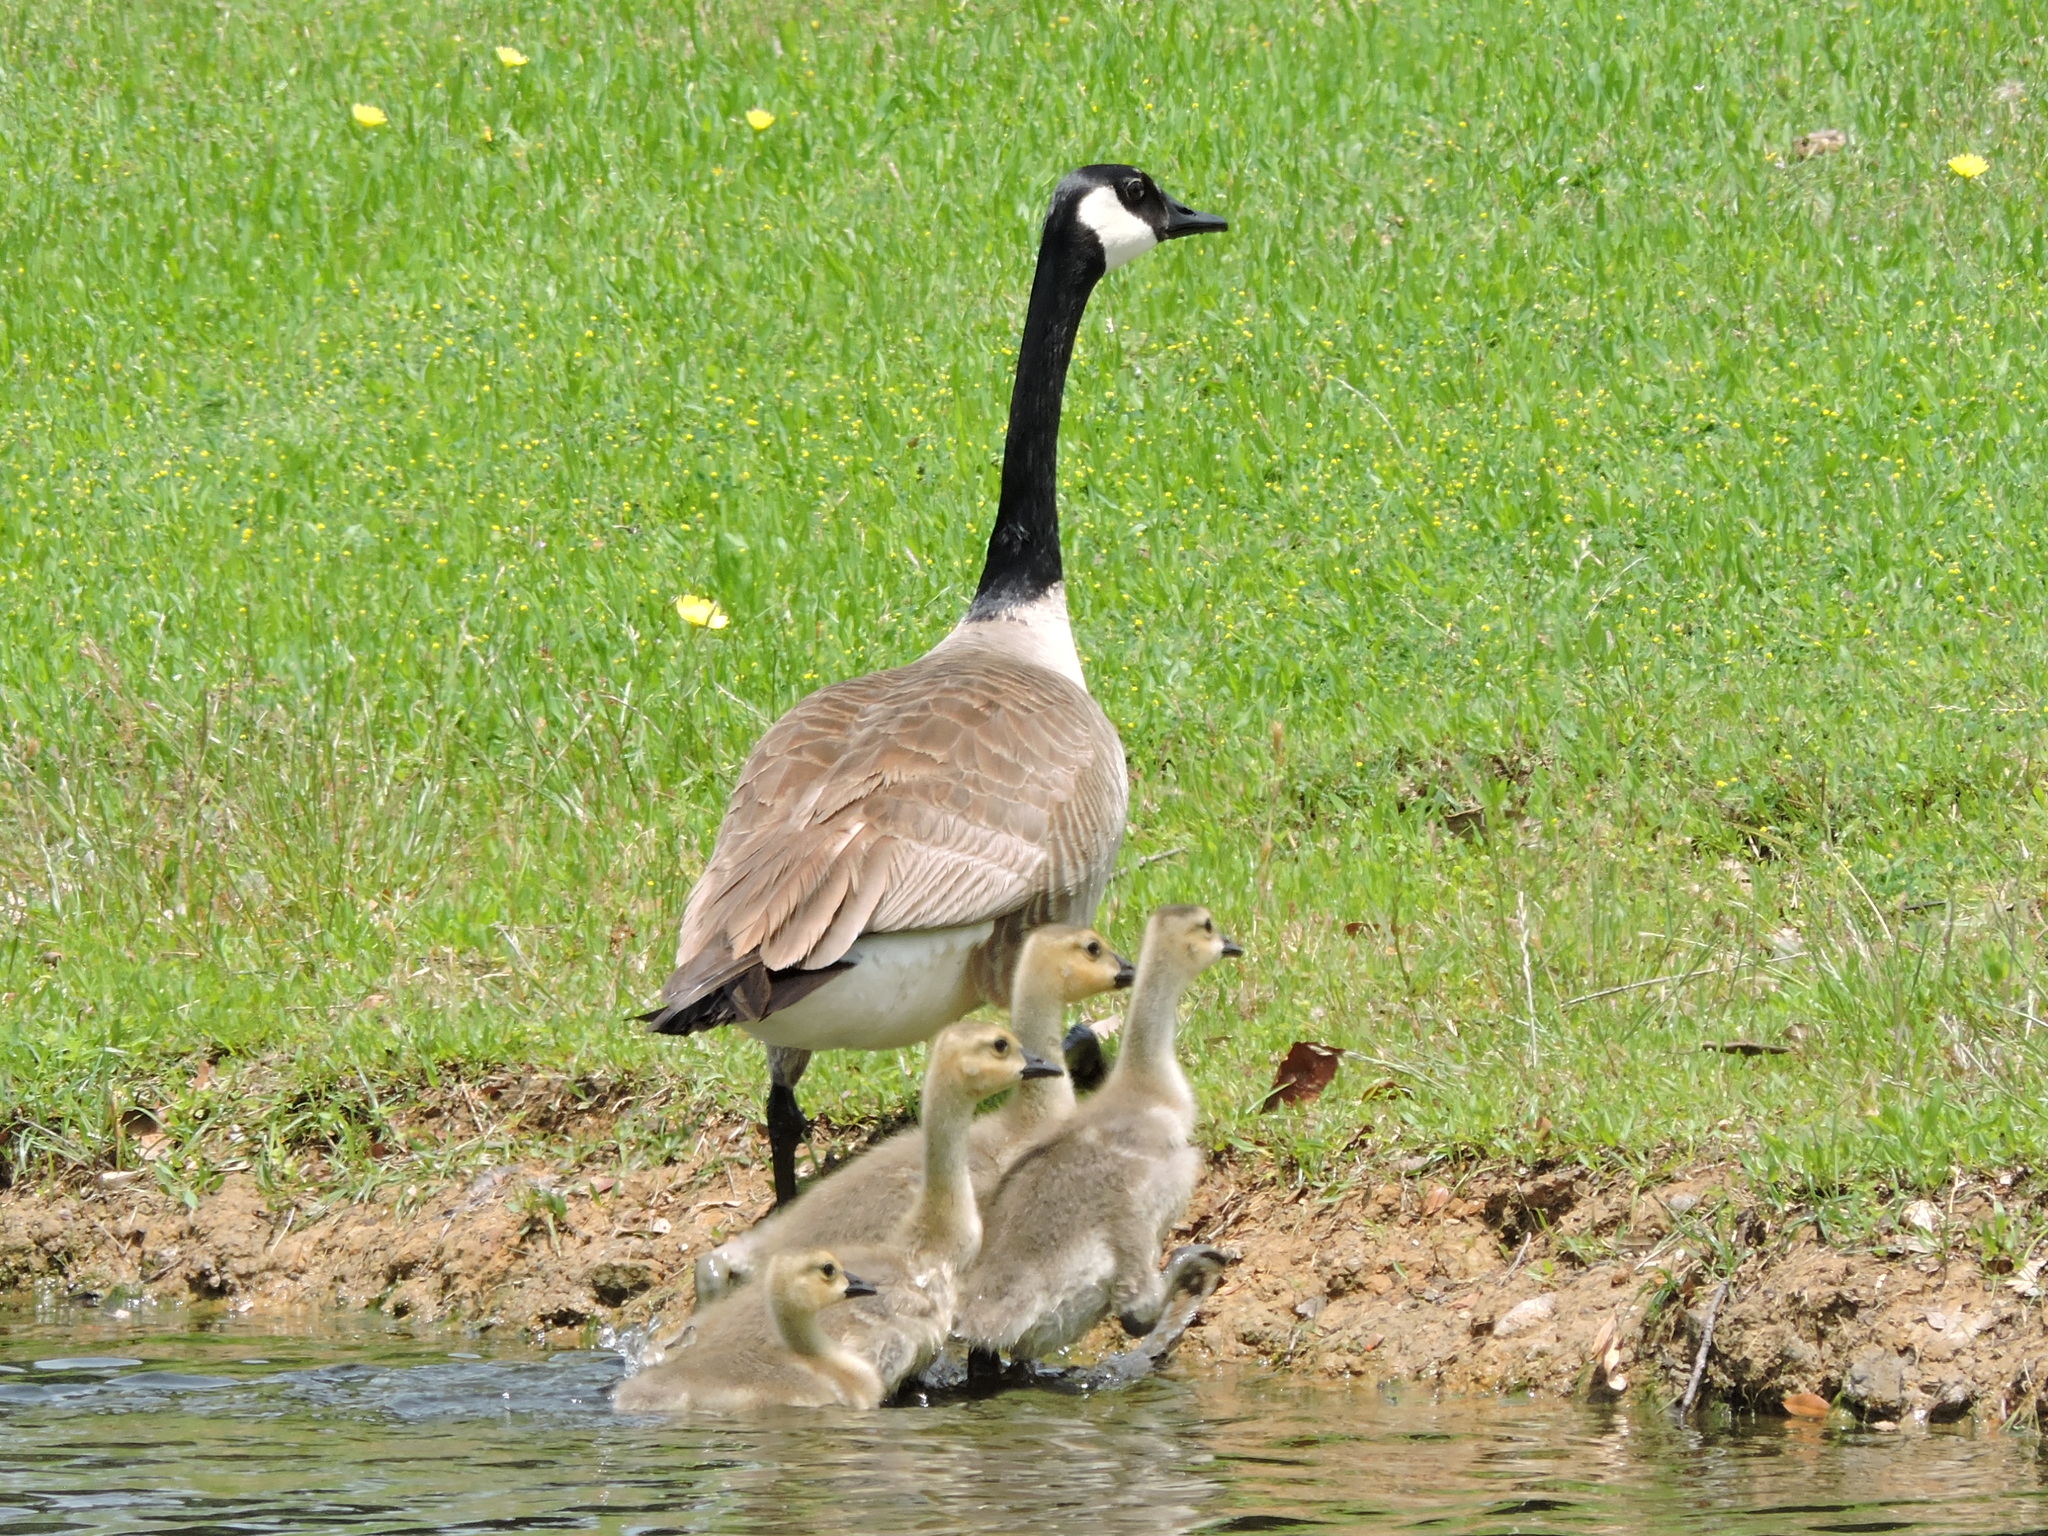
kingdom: Animalia
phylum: Chordata
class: Aves
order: Anseriformes
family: Anatidae
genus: Branta
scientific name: Branta canadensis
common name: Canada goose
